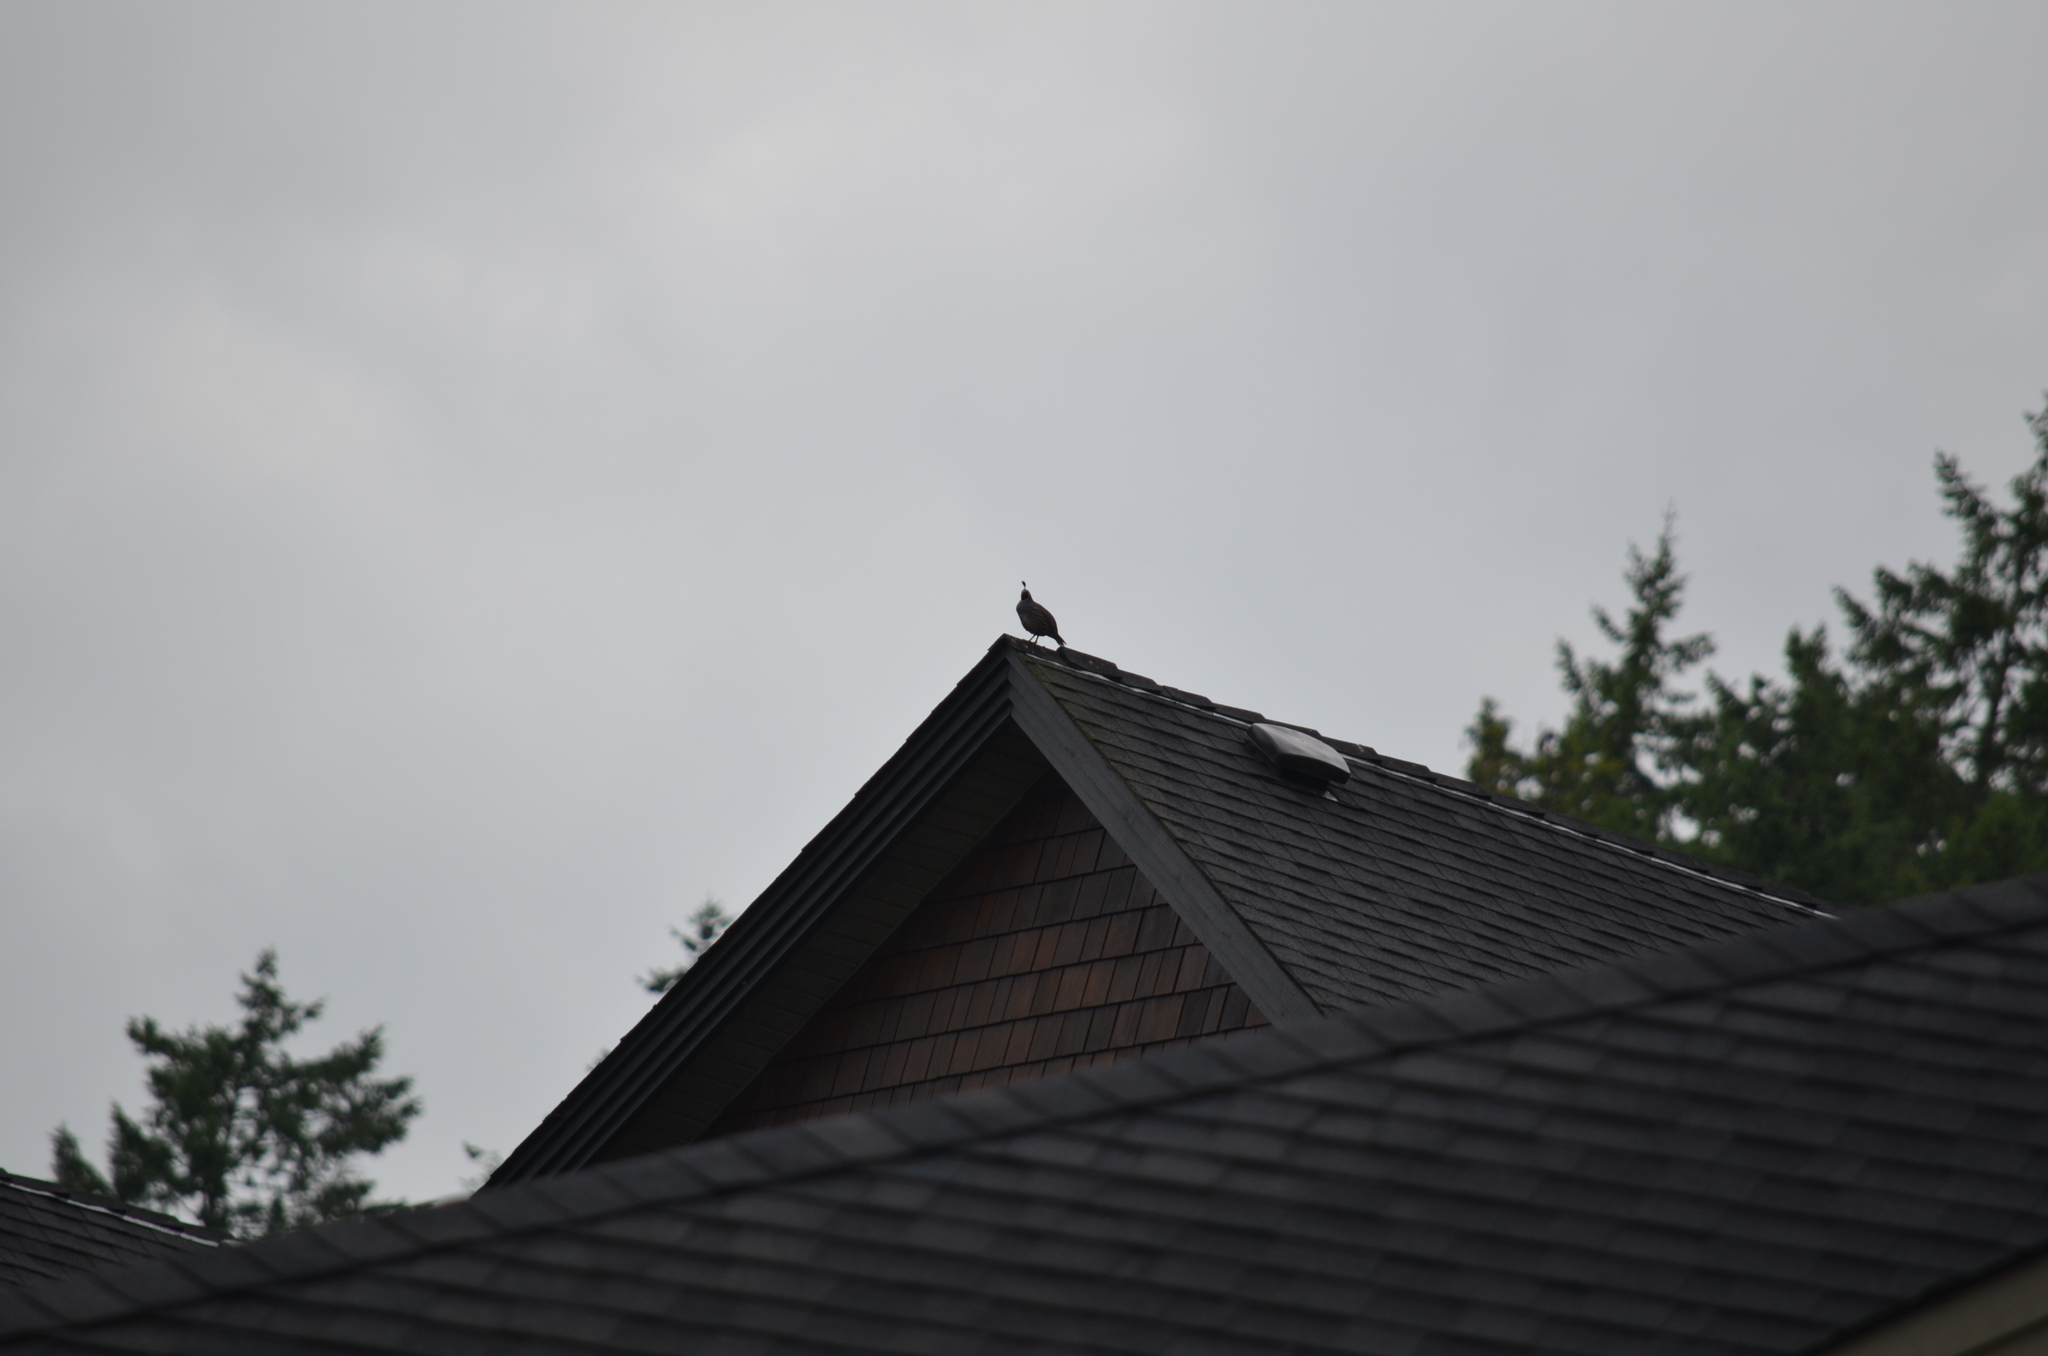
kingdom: Animalia
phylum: Chordata
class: Aves
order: Galliformes
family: Odontophoridae
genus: Callipepla
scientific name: Callipepla californica
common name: California quail
